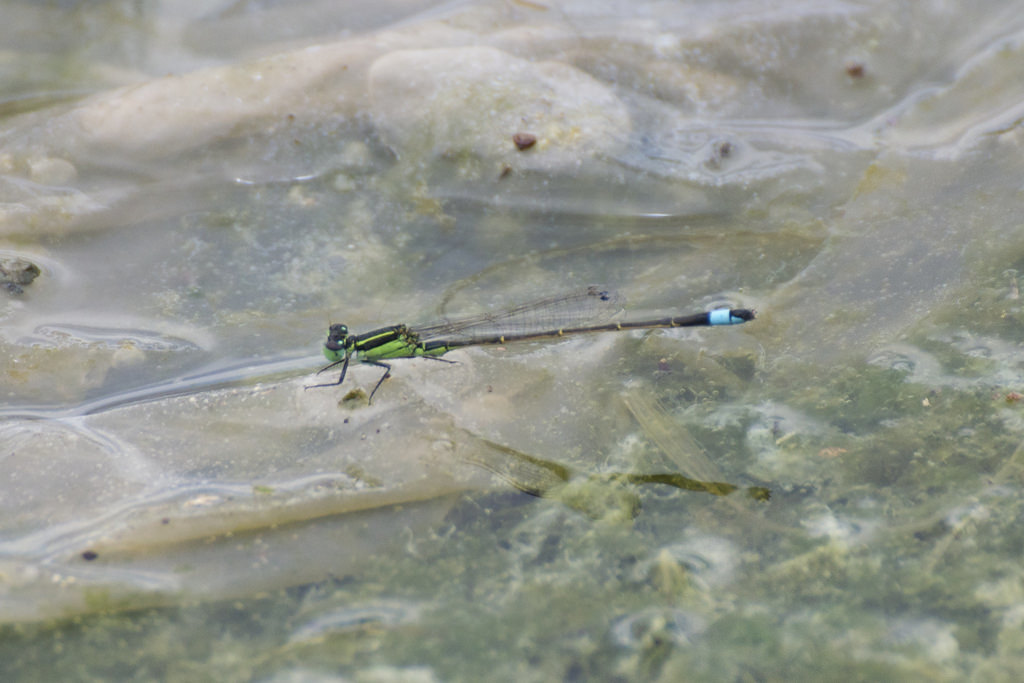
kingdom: Animalia
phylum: Arthropoda
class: Insecta
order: Odonata
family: Coenagrionidae
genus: Ischnura
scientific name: Ischnura ramburii
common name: Rambur's forktail
